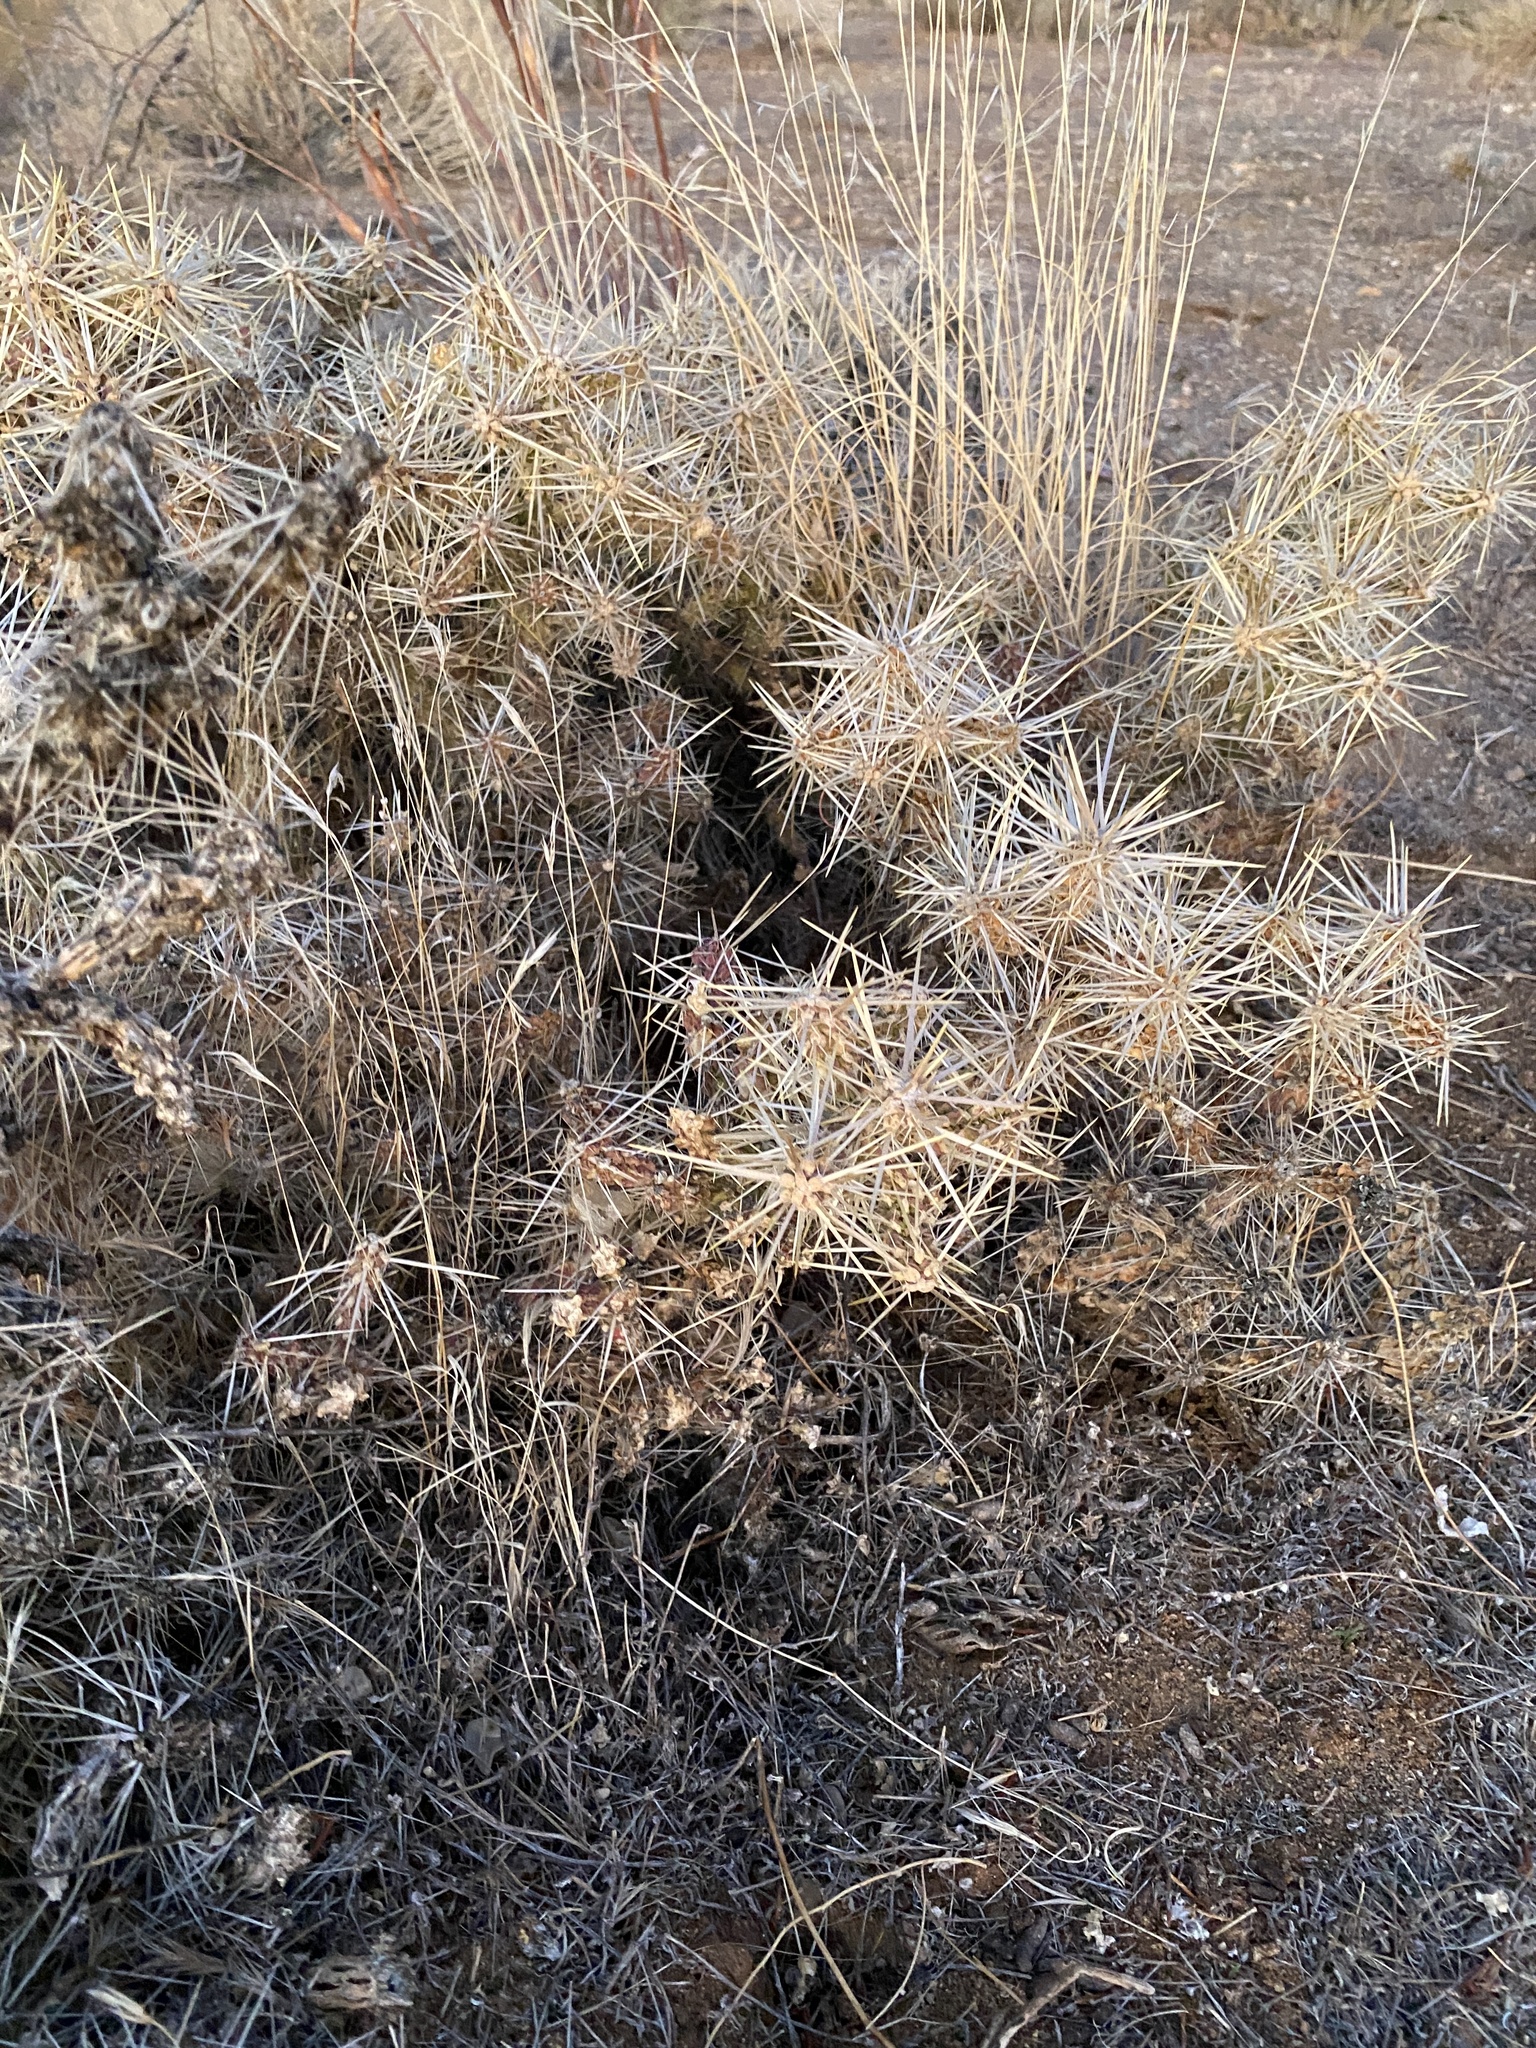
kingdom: Plantae
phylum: Tracheophyta
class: Magnoliopsida
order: Caryophyllales
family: Cactaceae
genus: Cylindropuntia
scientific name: Cylindropuntia whipplei
